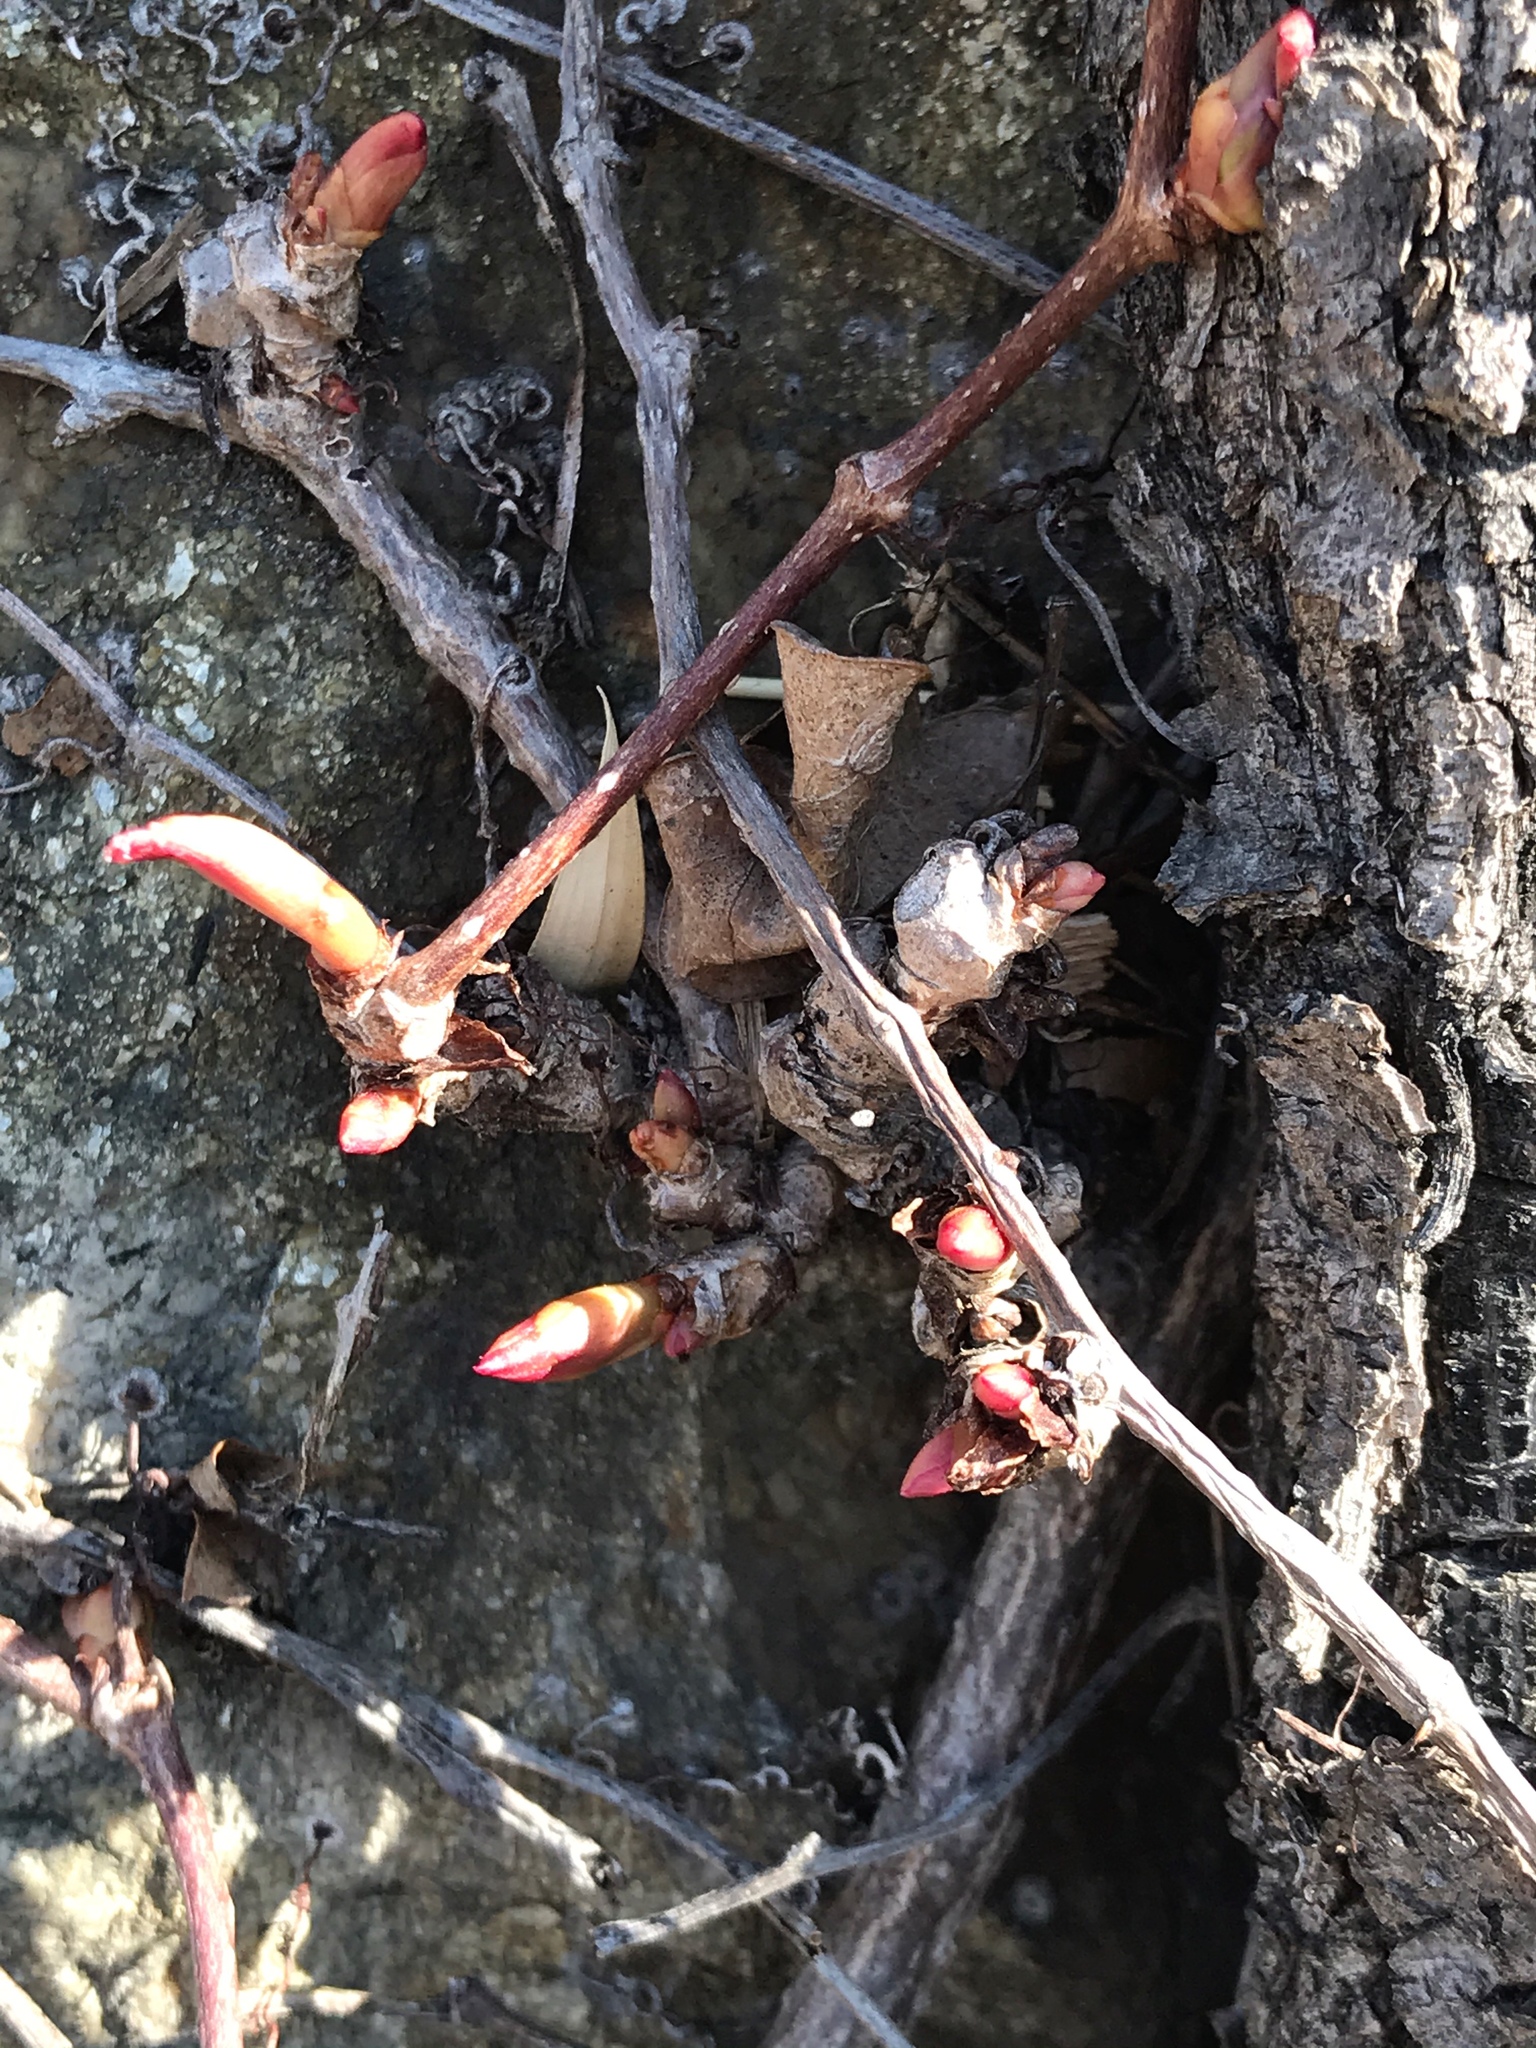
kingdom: Plantae
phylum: Tracheophyta
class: Magnoliopsida
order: Vitales
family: Vitaceae
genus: Parthenocissus
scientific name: Parthenocissus tricuspidata
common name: Boston ivy
